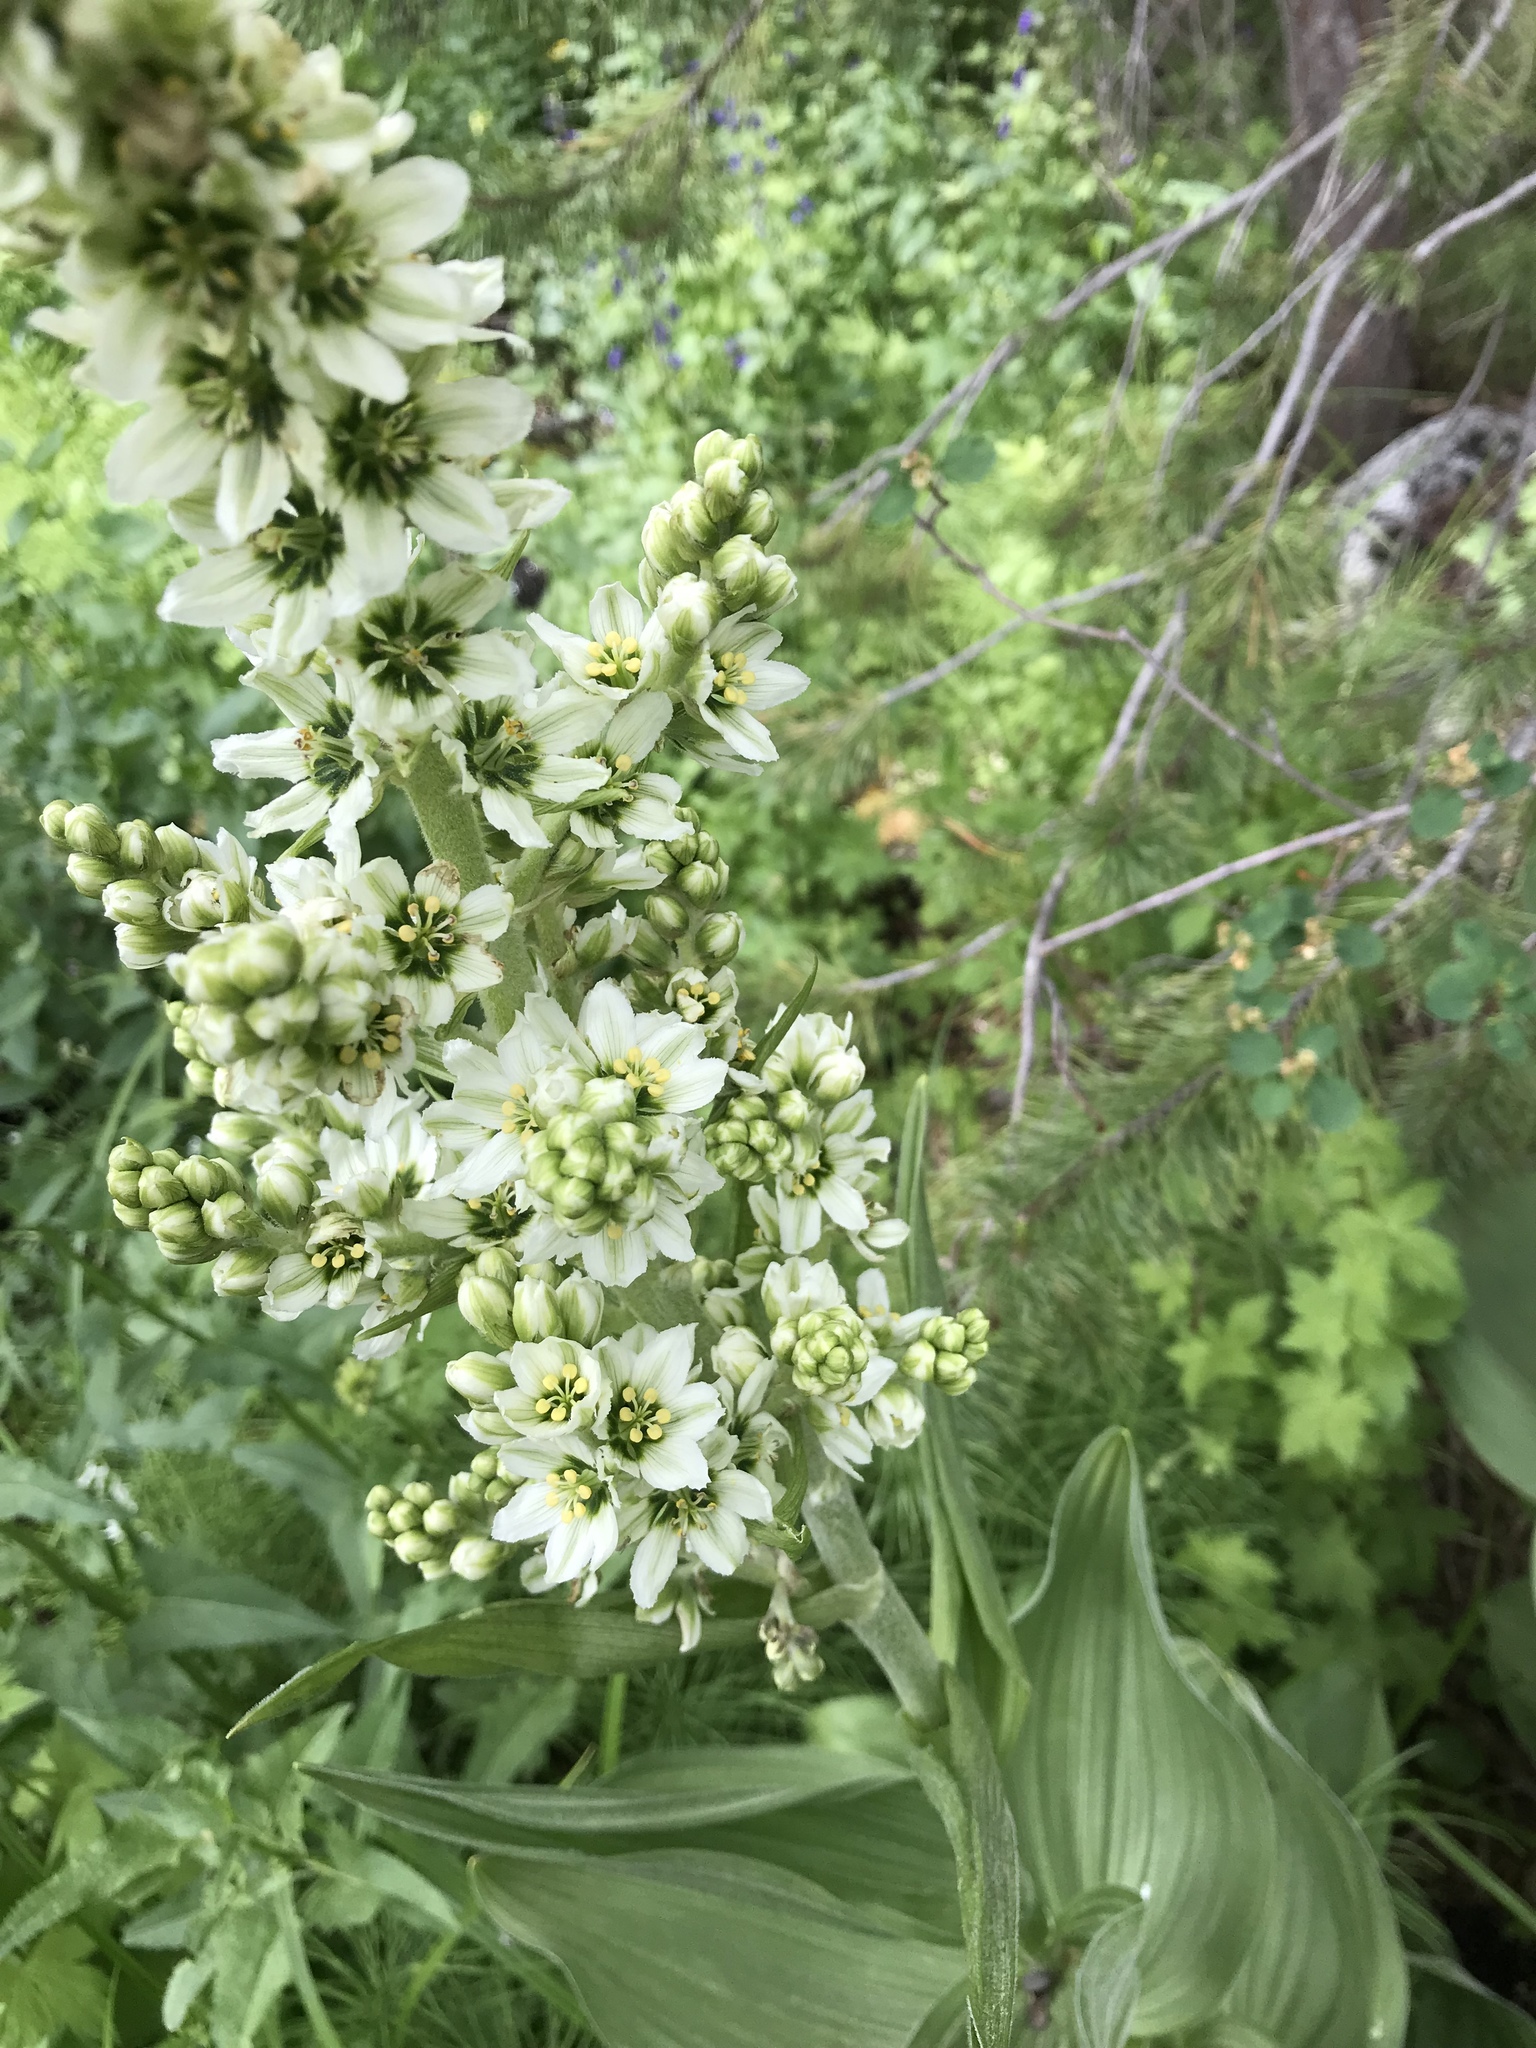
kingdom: Plantae
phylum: Tracheophyta
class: Liliopsida
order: Liliales
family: Melanthiaceae
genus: Veratrum
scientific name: Veratrum californicum
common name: California veratrum
